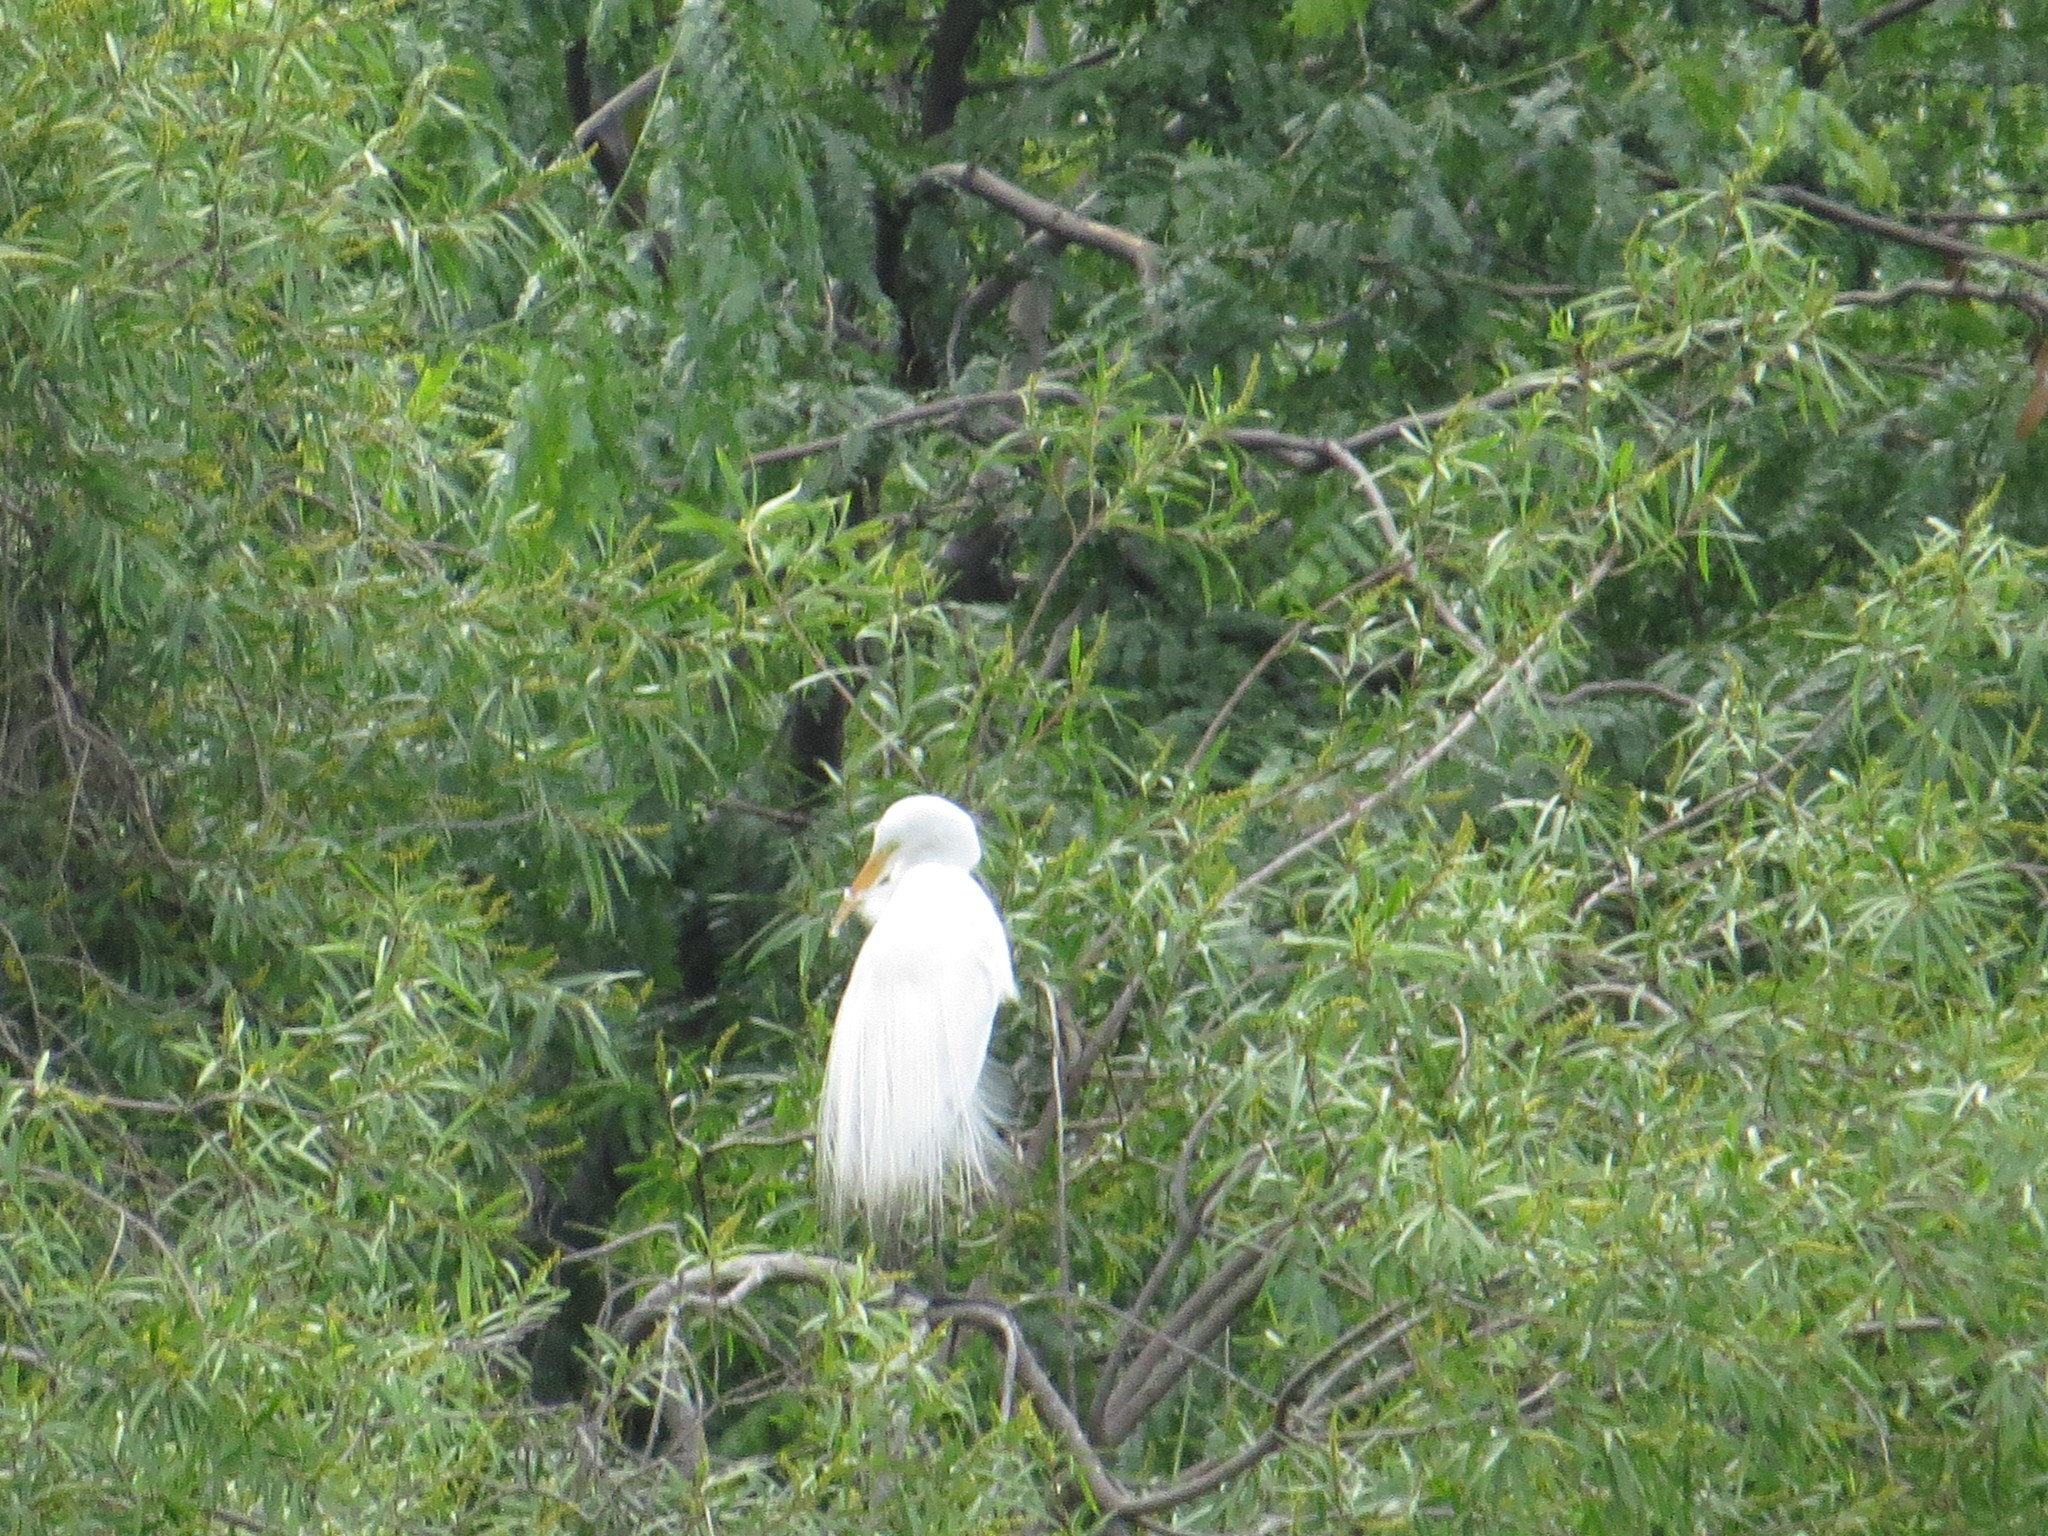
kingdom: Animalia
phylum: Chordata
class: Aves
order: Pelecaniformes
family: Ardeidae
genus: Ardea
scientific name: Ardea alba
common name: Great egret
